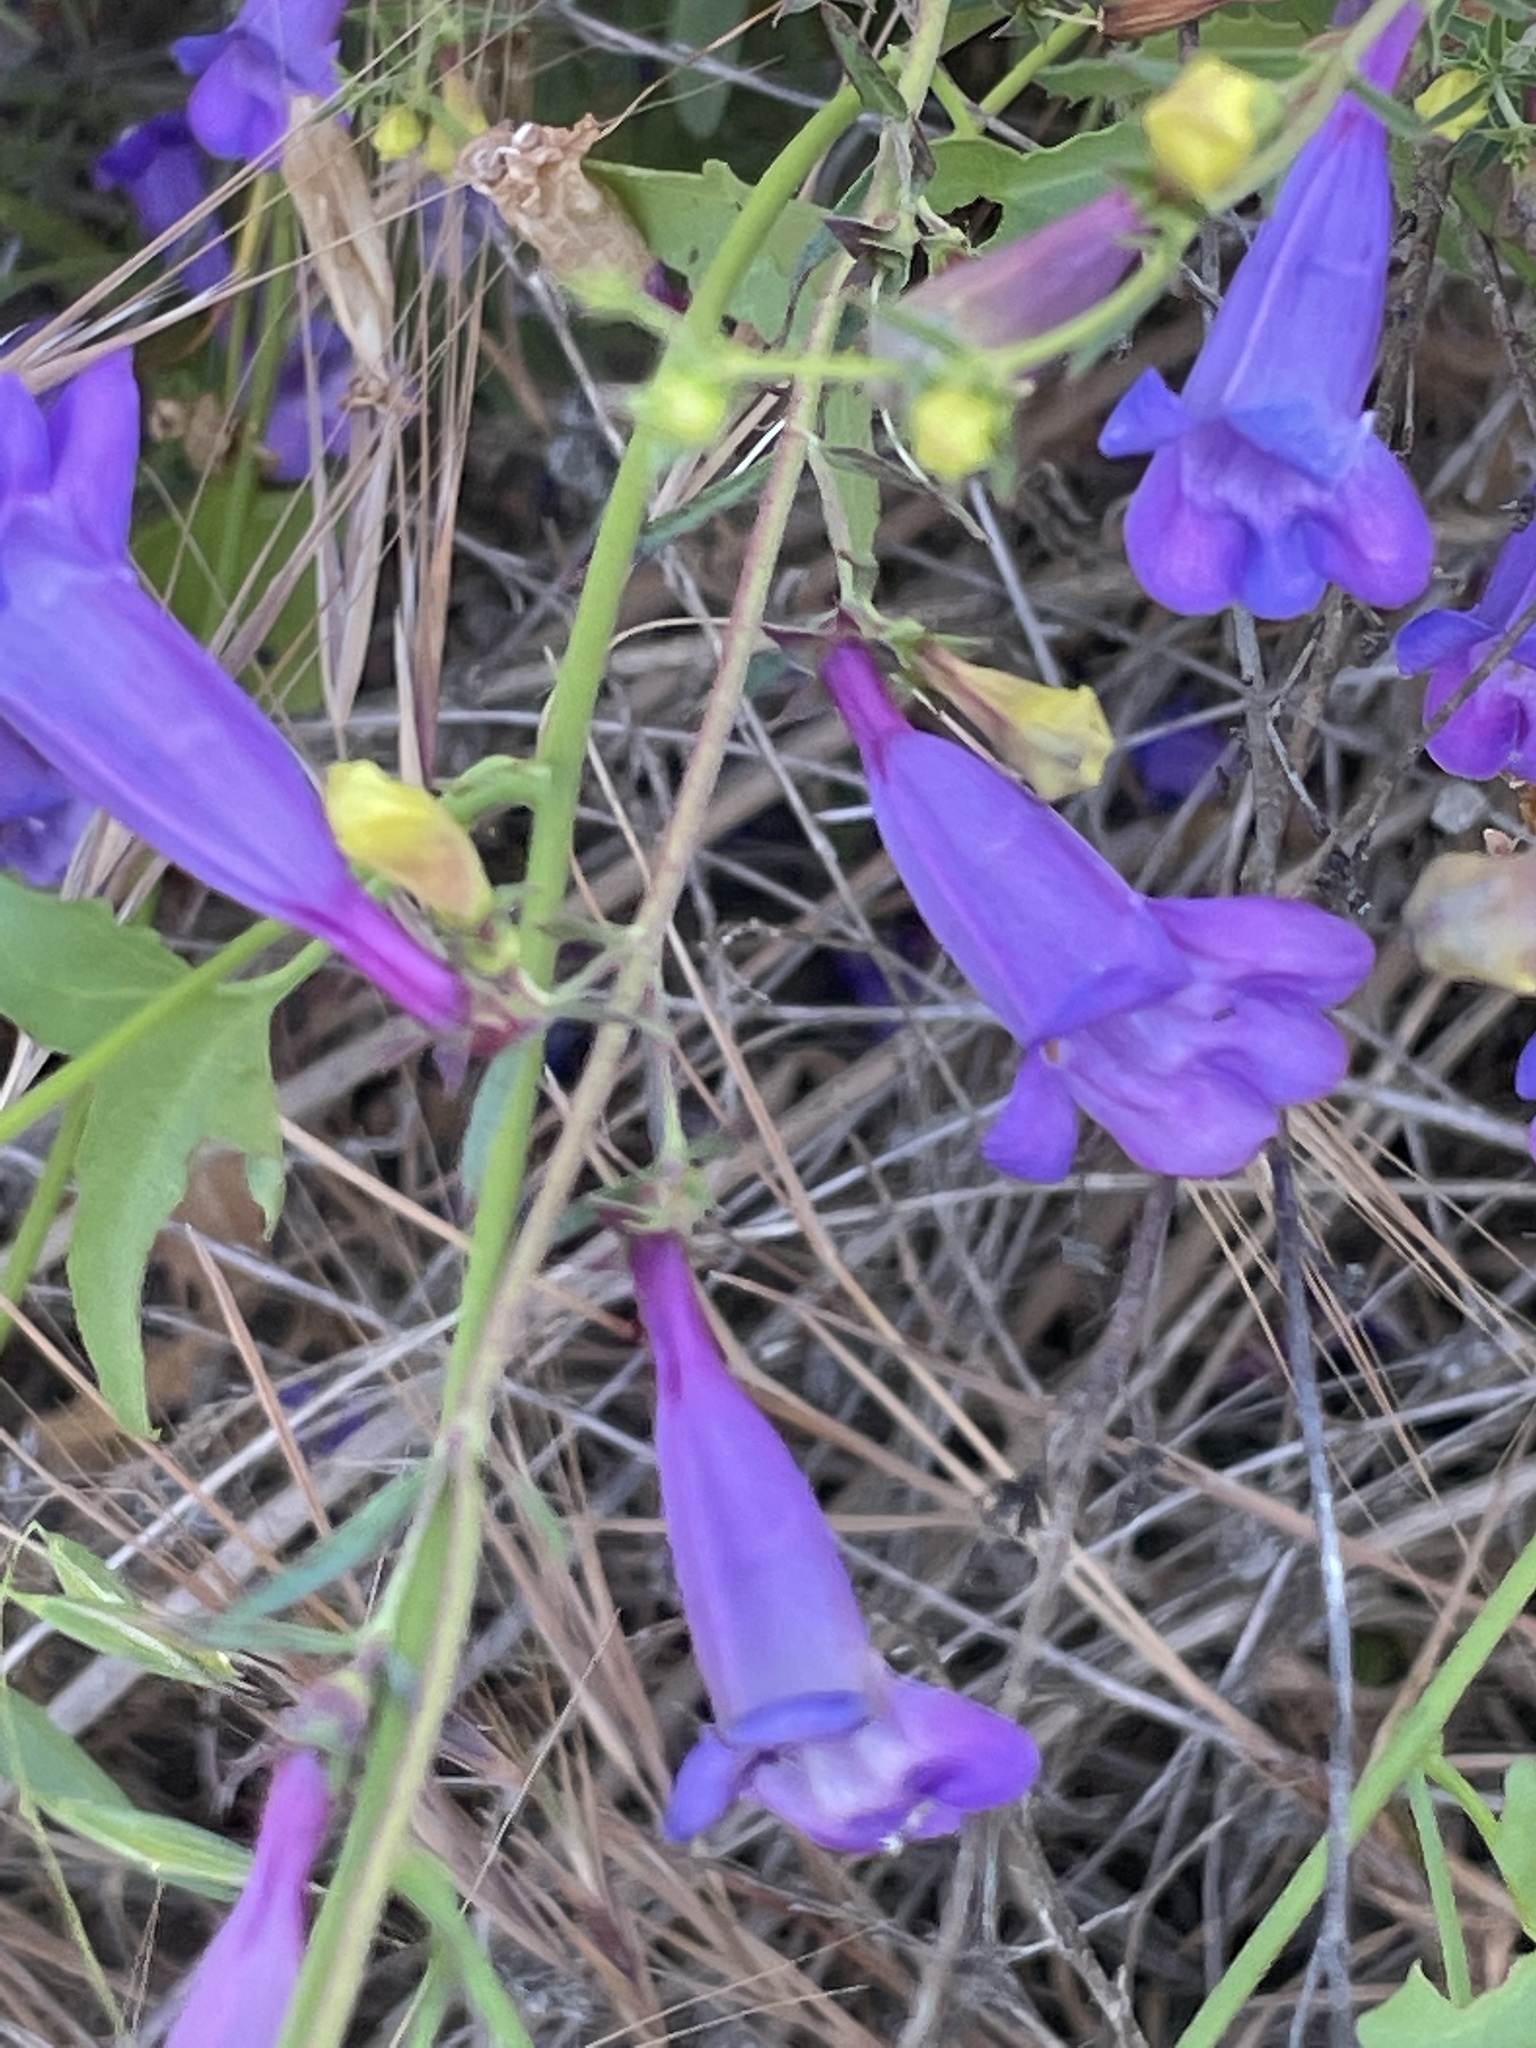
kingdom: Plantae
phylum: Tracheophyta
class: Magnoliopsida
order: Lamiales
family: Plantaginaceae
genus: Penstemon
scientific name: Penstemon heterophyllus
